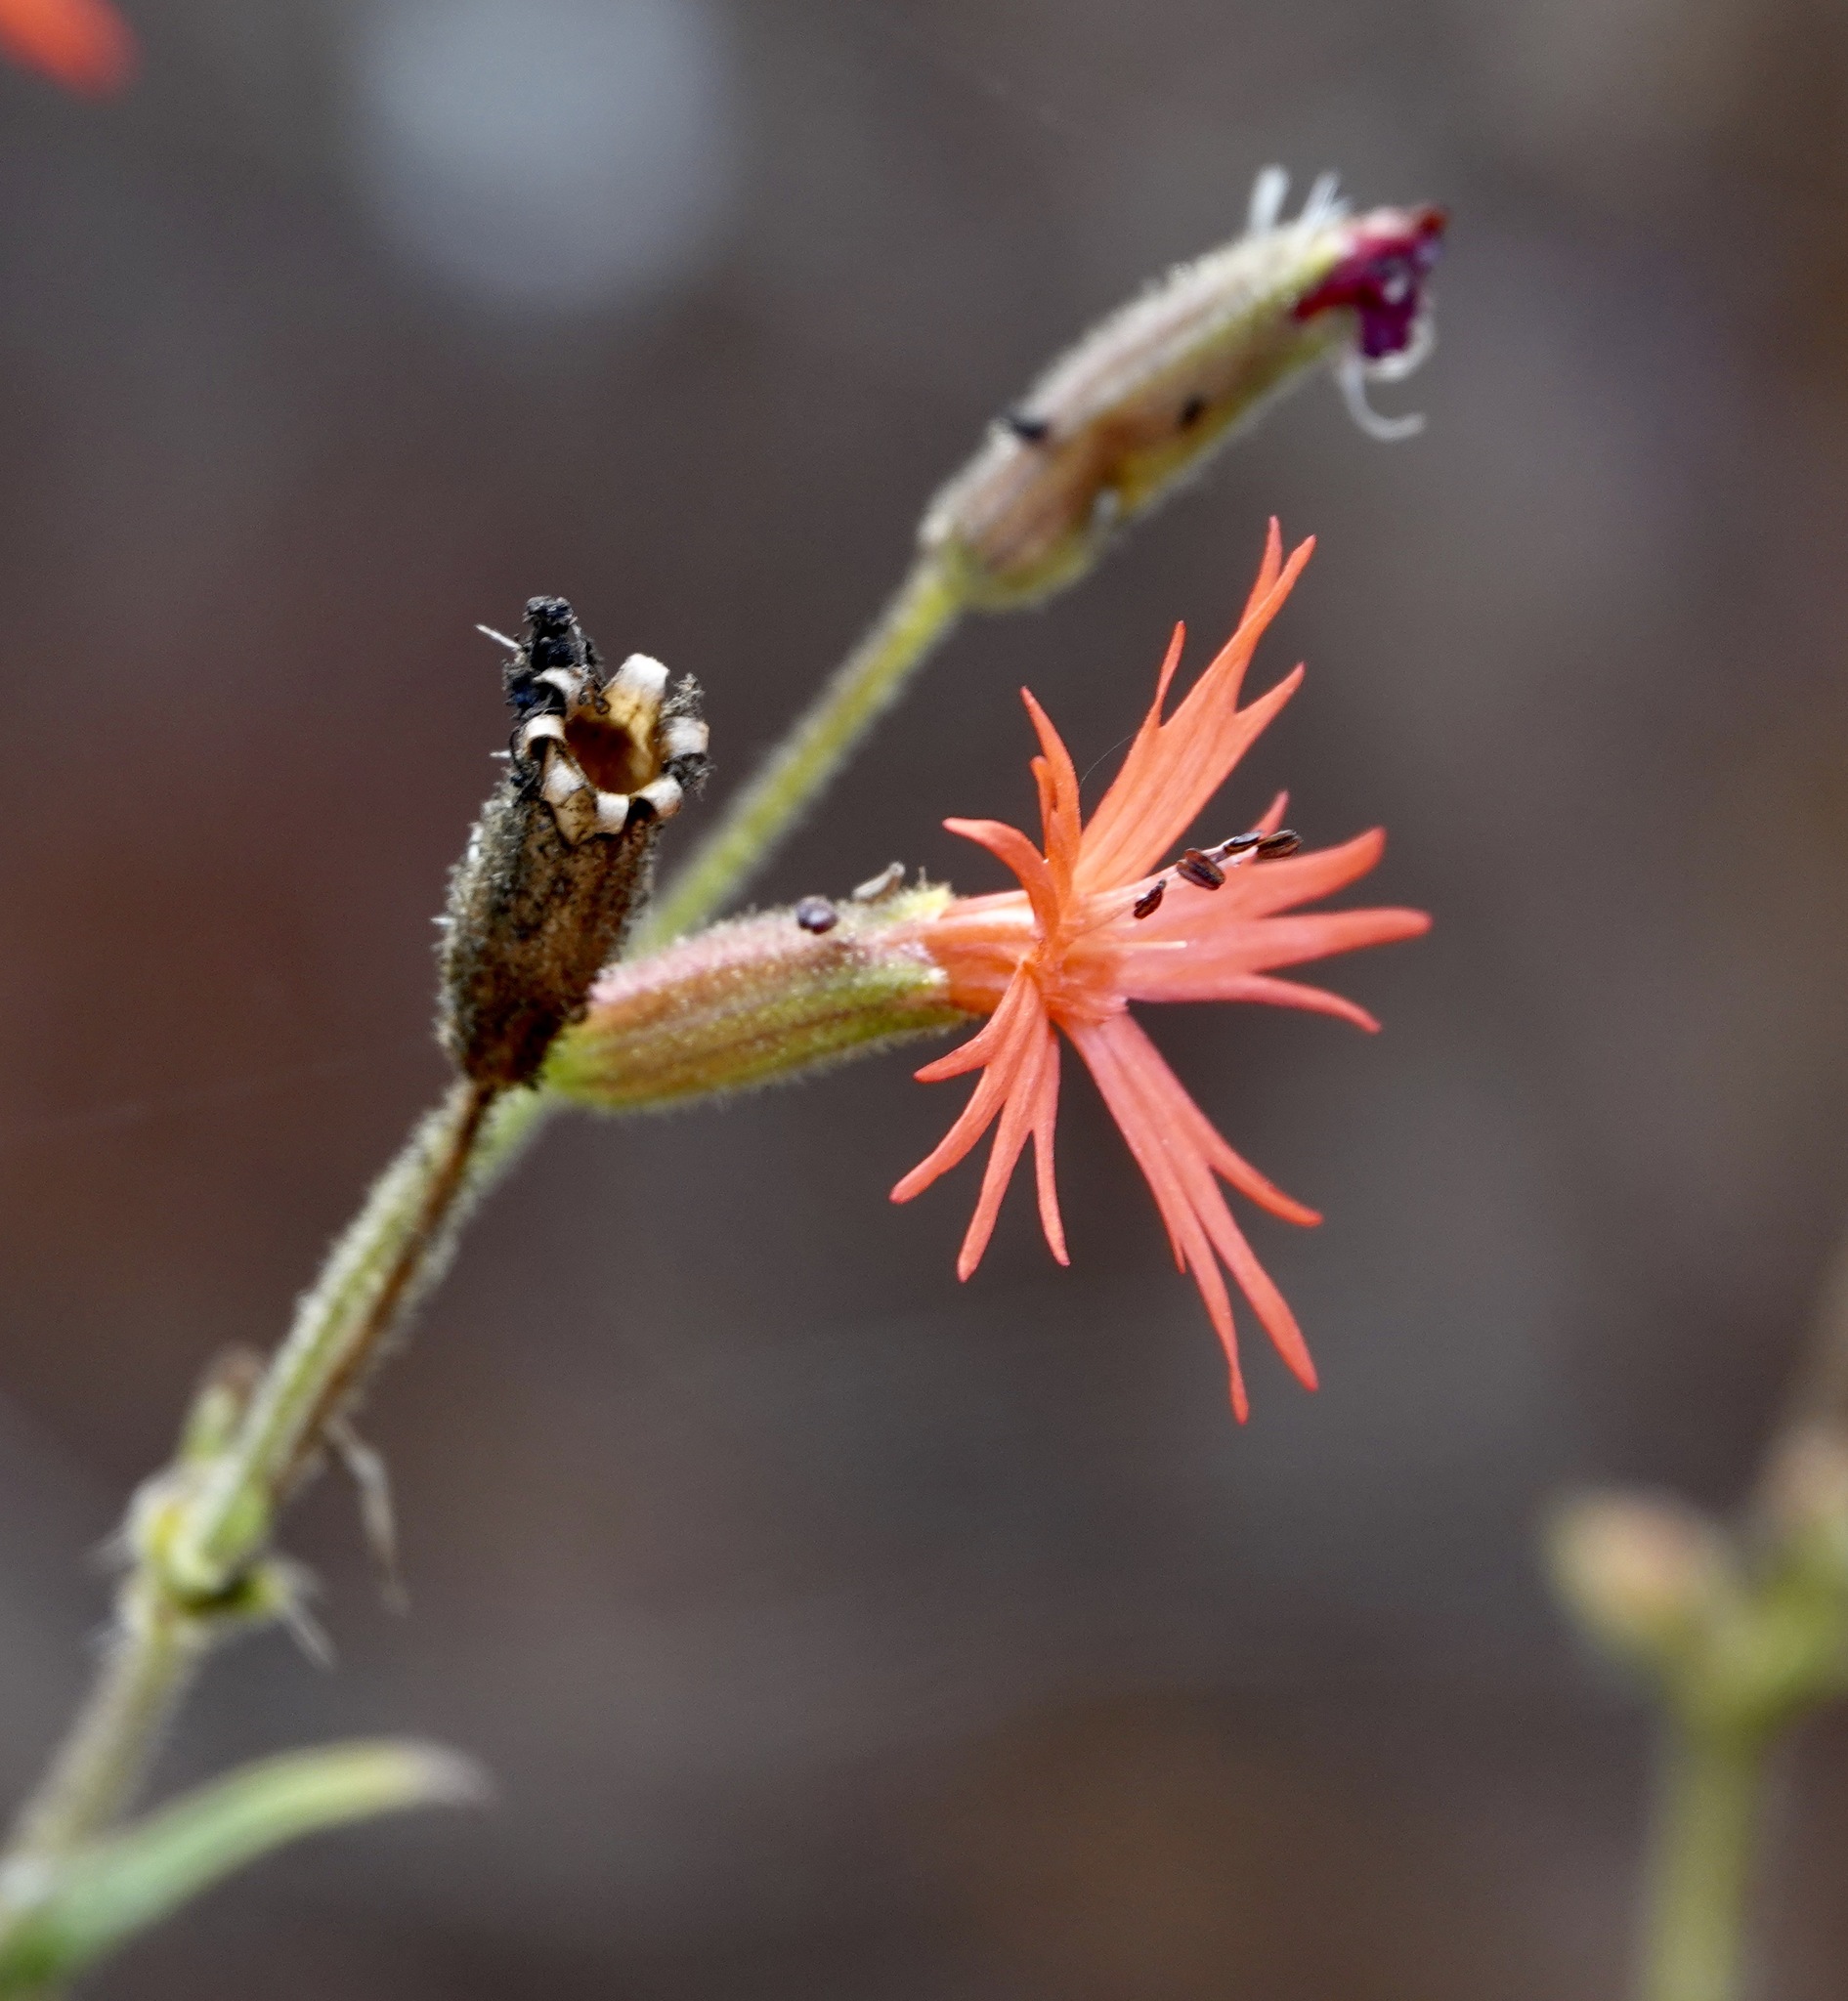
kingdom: Plantae
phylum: Tracheophyta
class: Magnoliopsida
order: Caryophyllales
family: Caryophyllaceae
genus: Silene
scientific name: Silene laciniata
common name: Indian-pink
